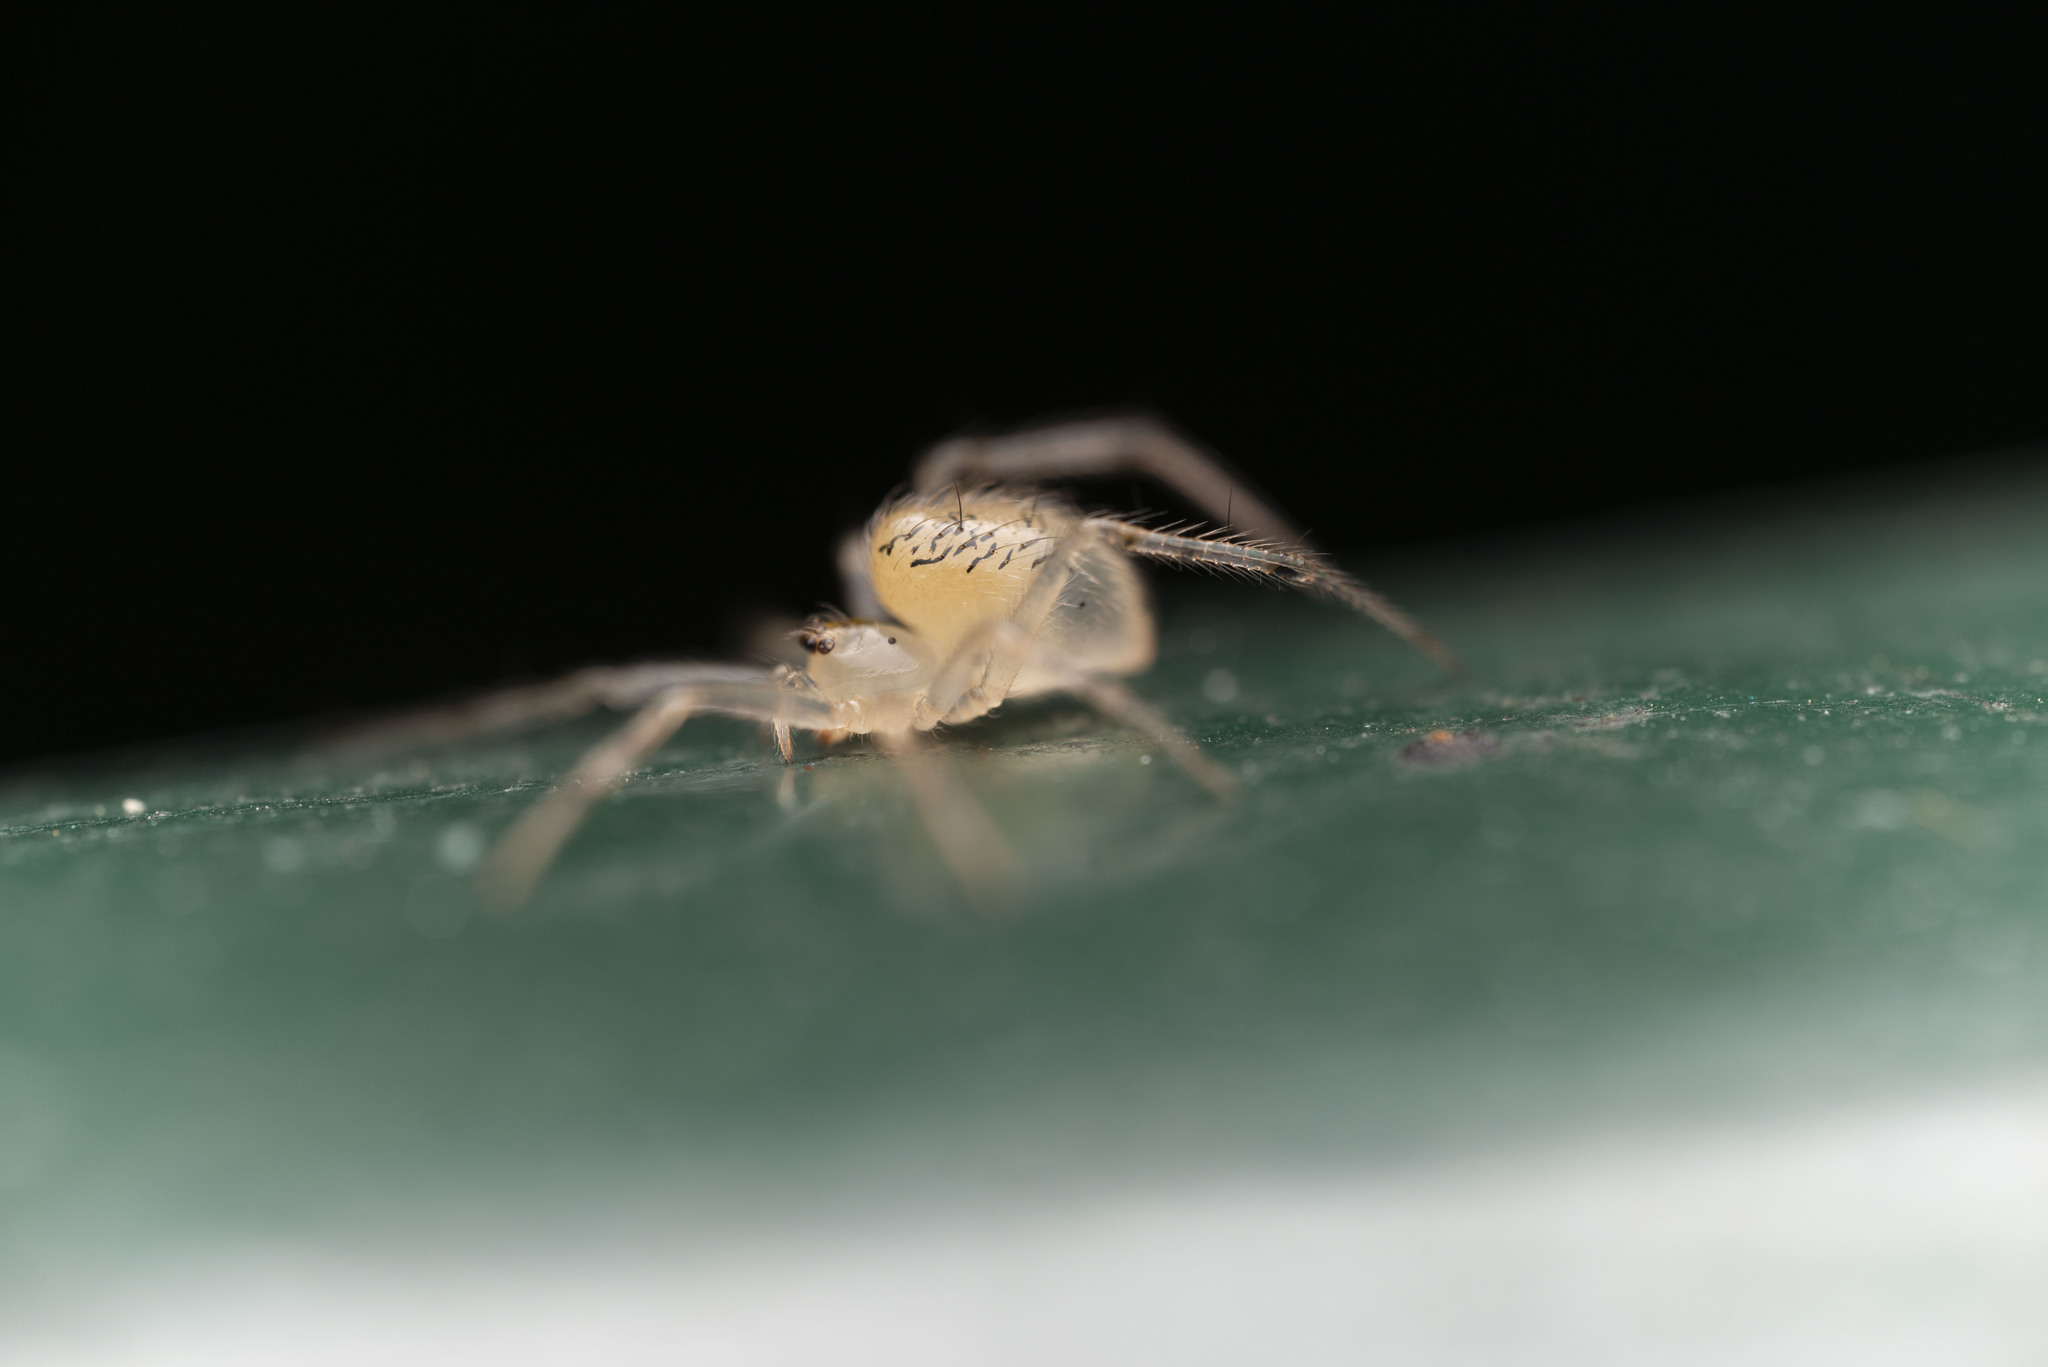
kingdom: Animalia
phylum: Arthropoda
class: Arachnida
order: Araneae
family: Theridiidae
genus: Phycosoma
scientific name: Phycosoma digitula
